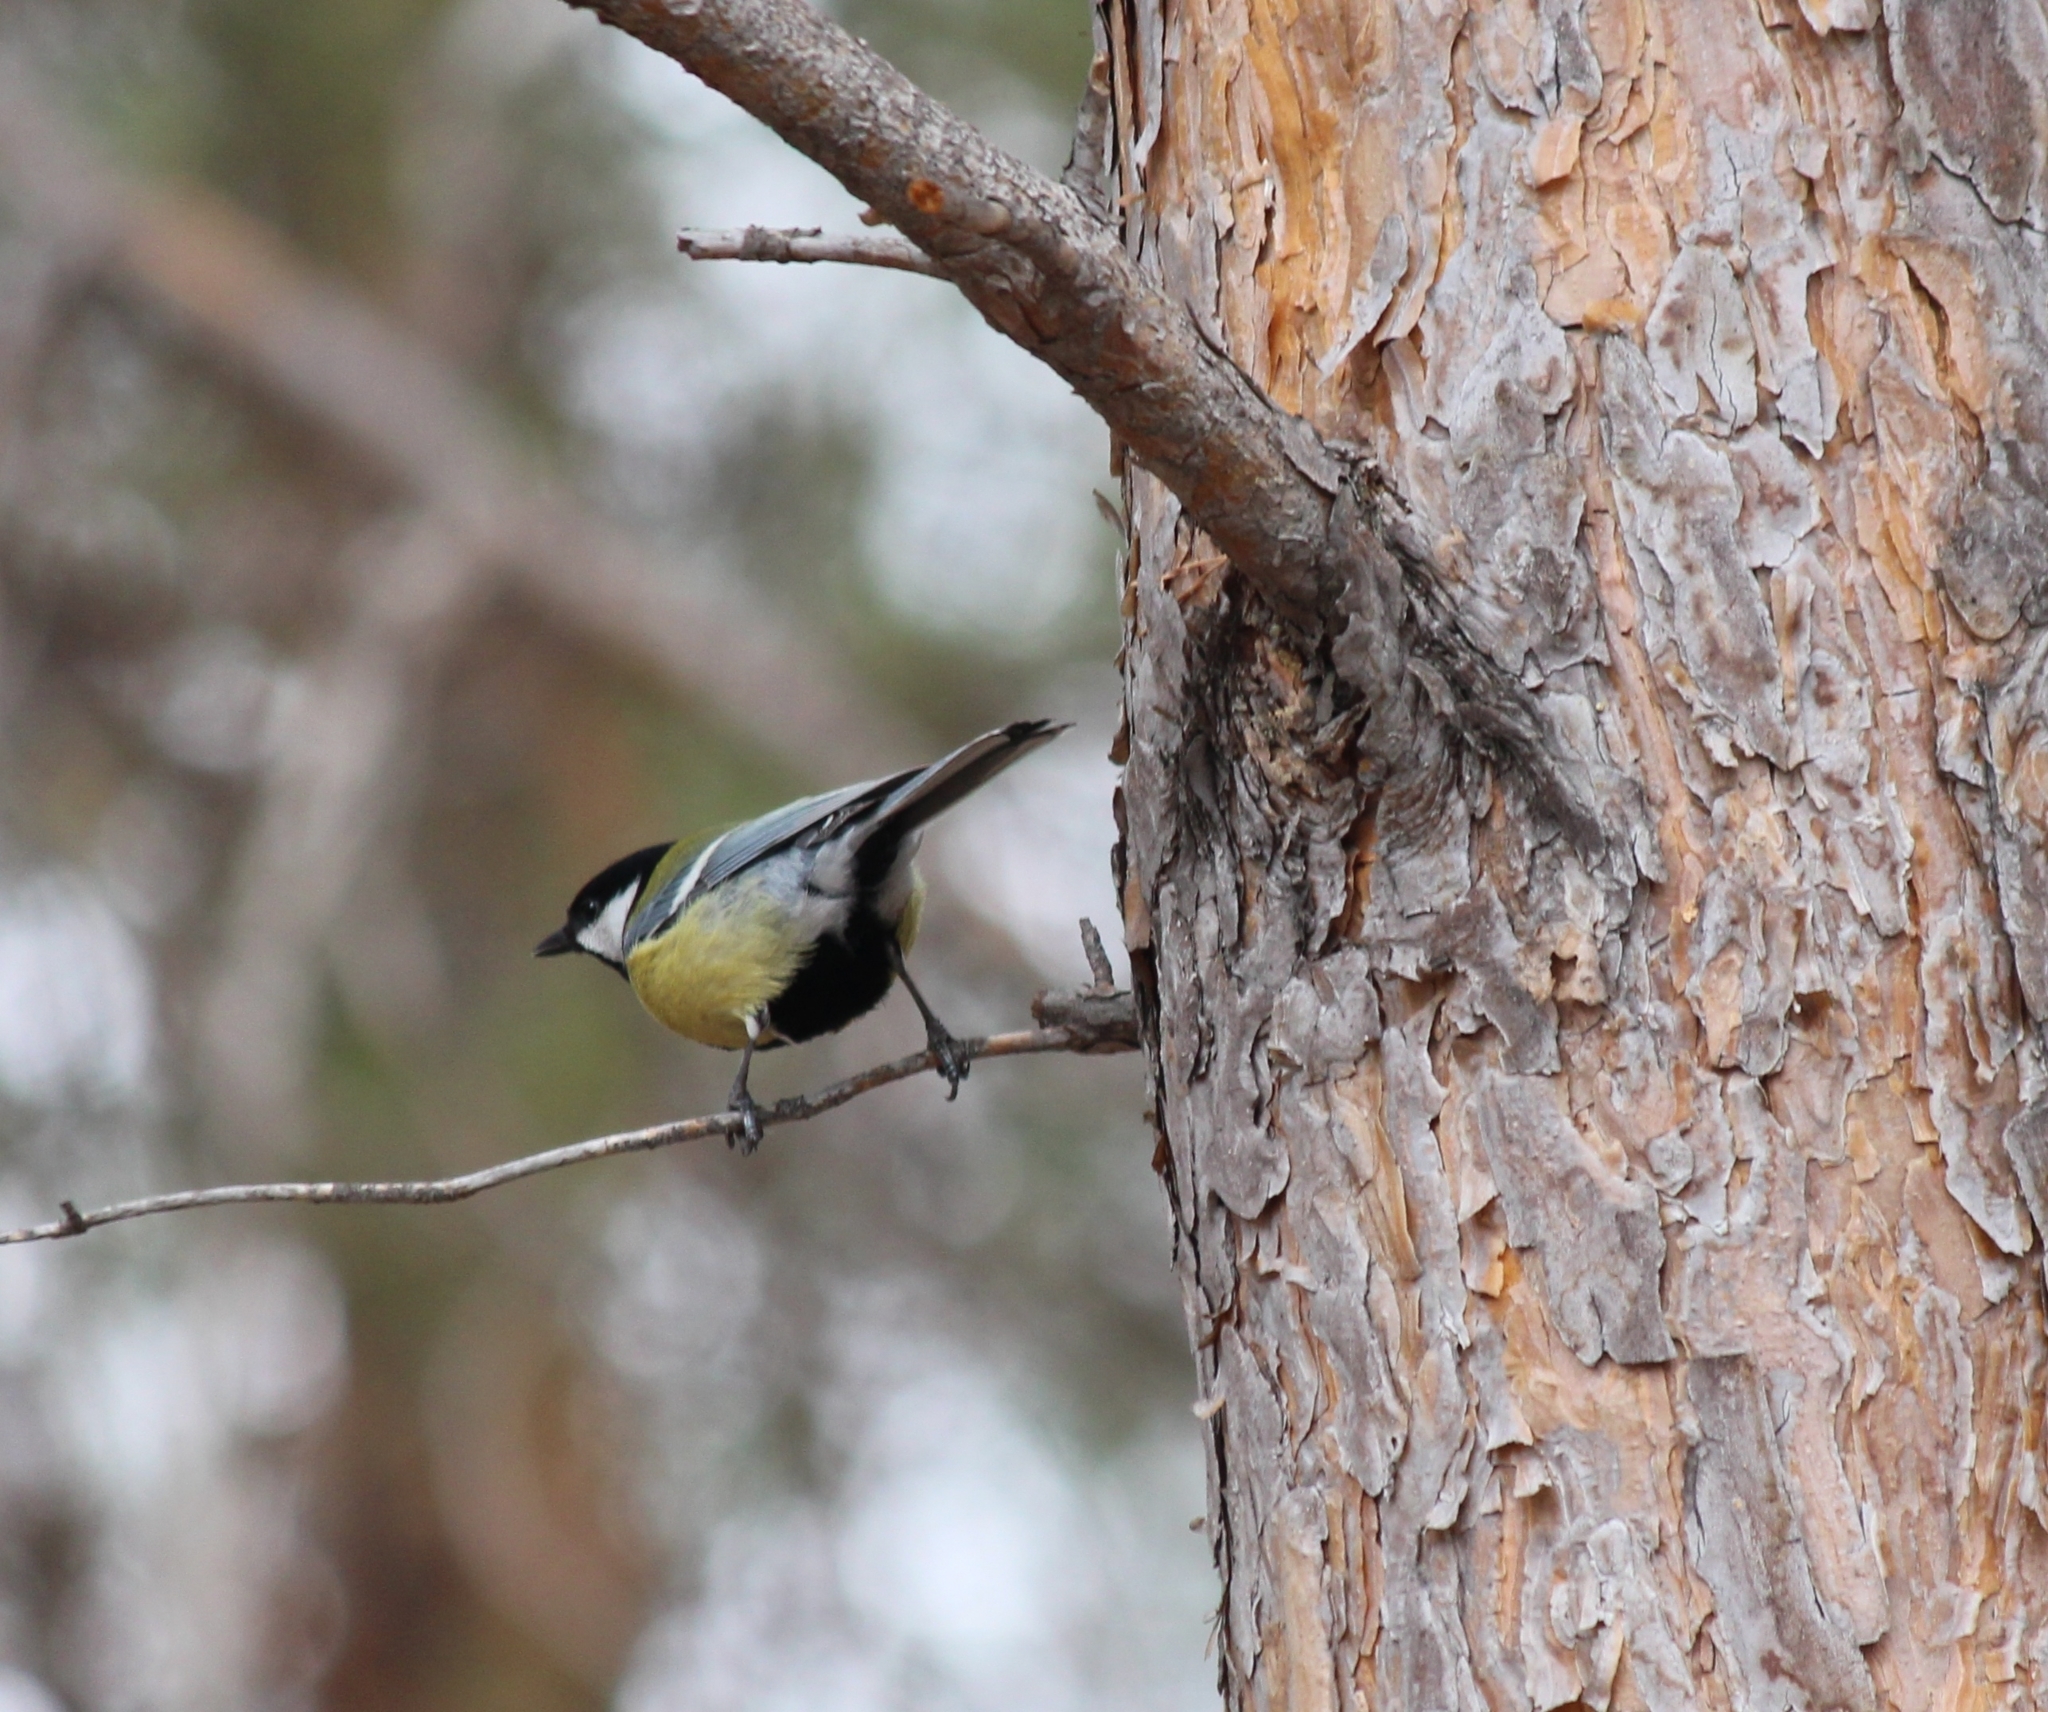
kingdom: Animalia
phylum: Chordata
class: Aves
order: Passeriformes
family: Paridae
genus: Parus
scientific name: Parus major
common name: Great tit
